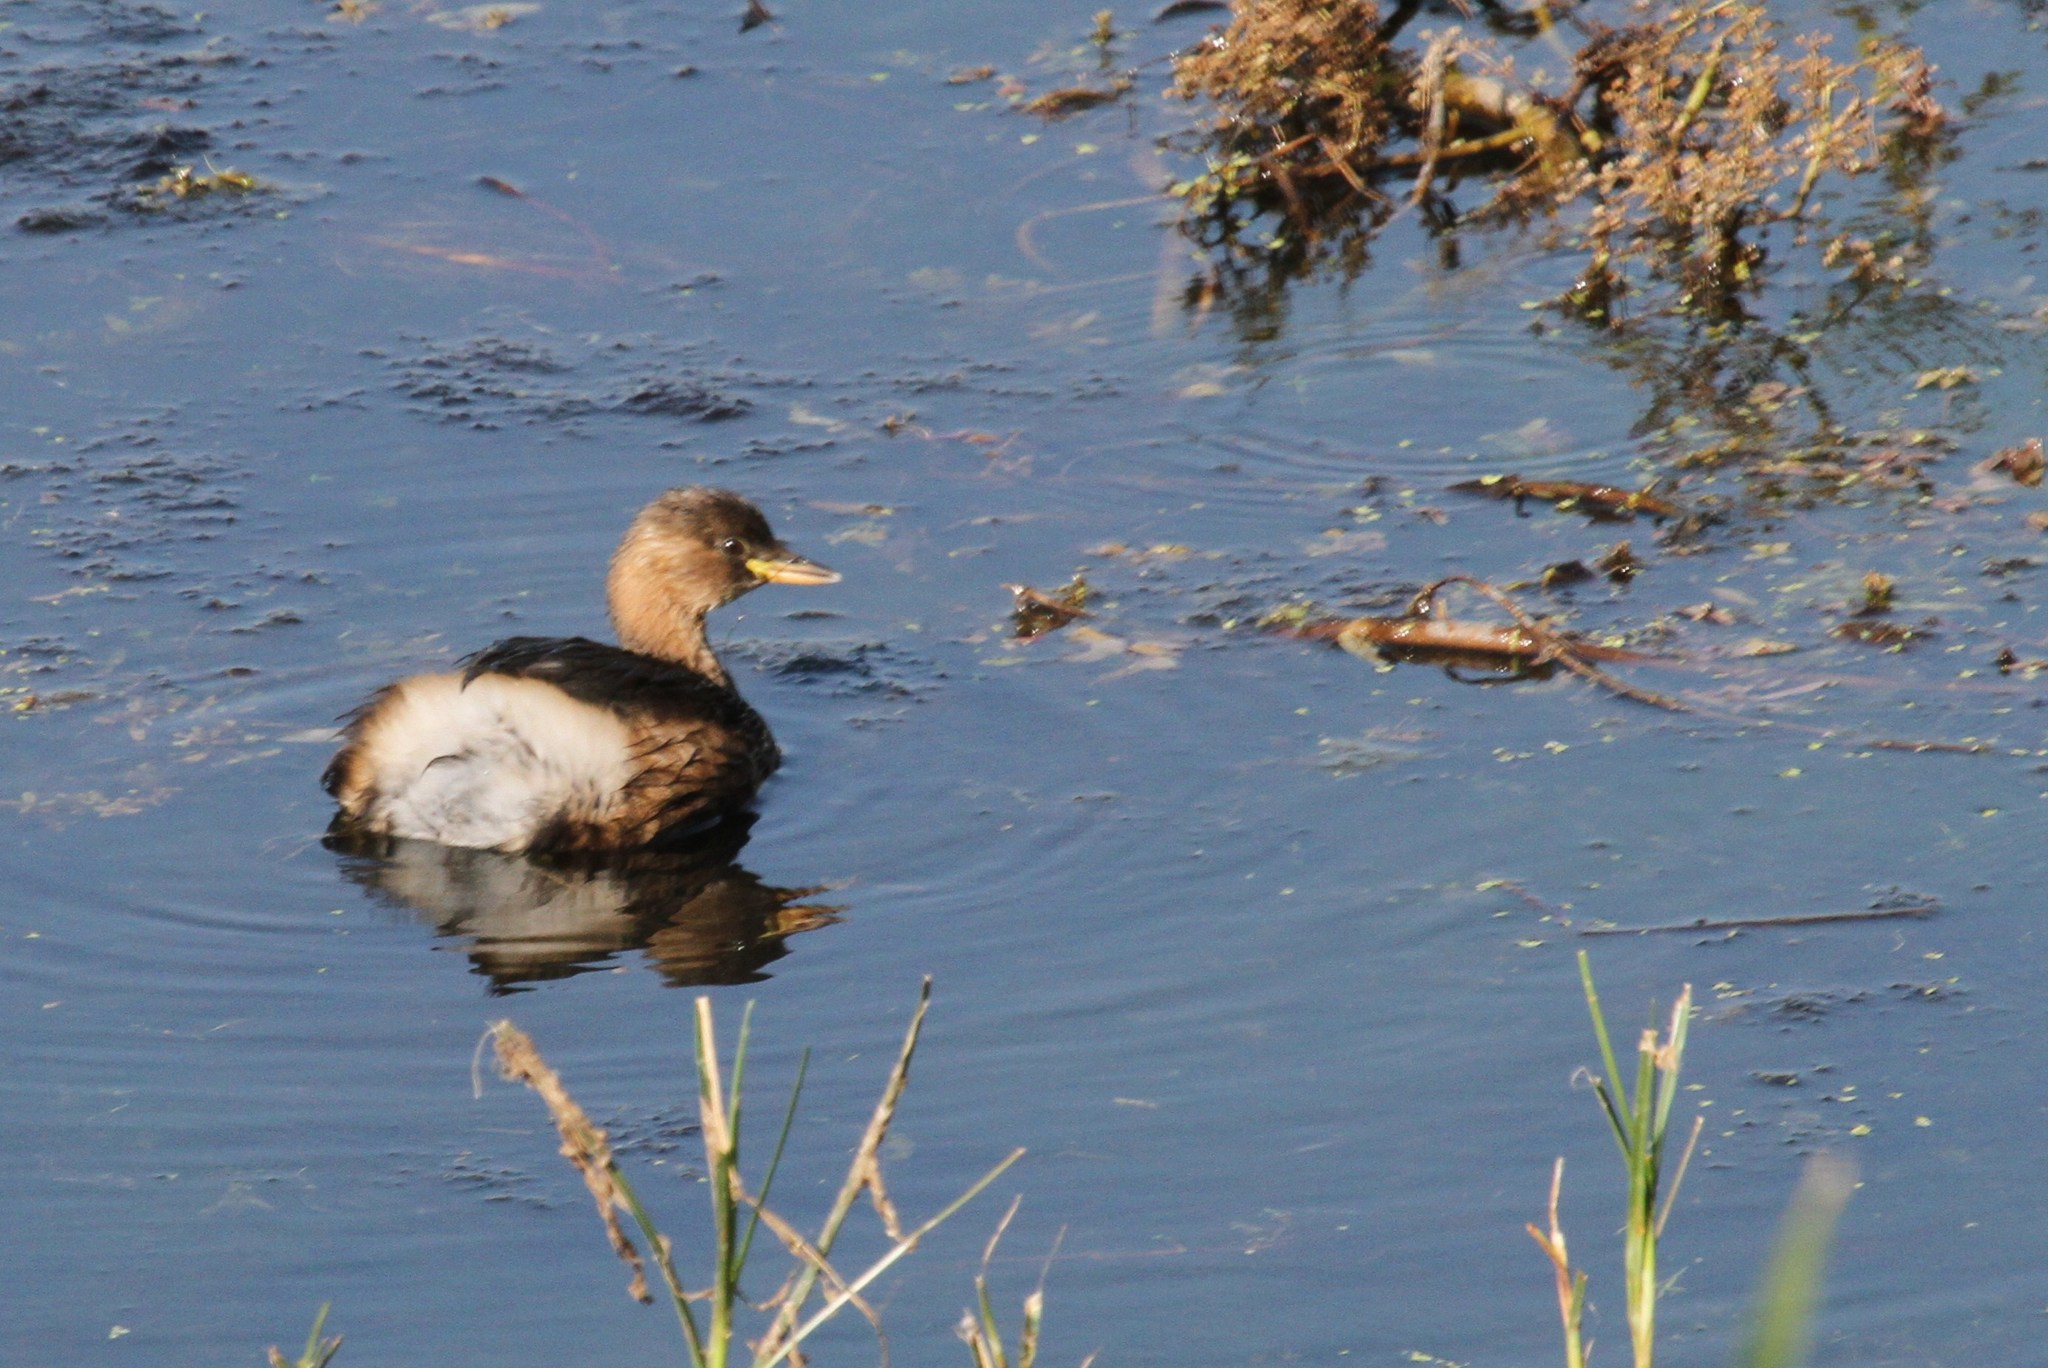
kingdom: Animalia
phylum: Chordata
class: Aves
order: Podicipediformes
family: Podicipedidae
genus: Tachybaptus
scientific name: Tachybaptus ruficollis
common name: Little grebe
